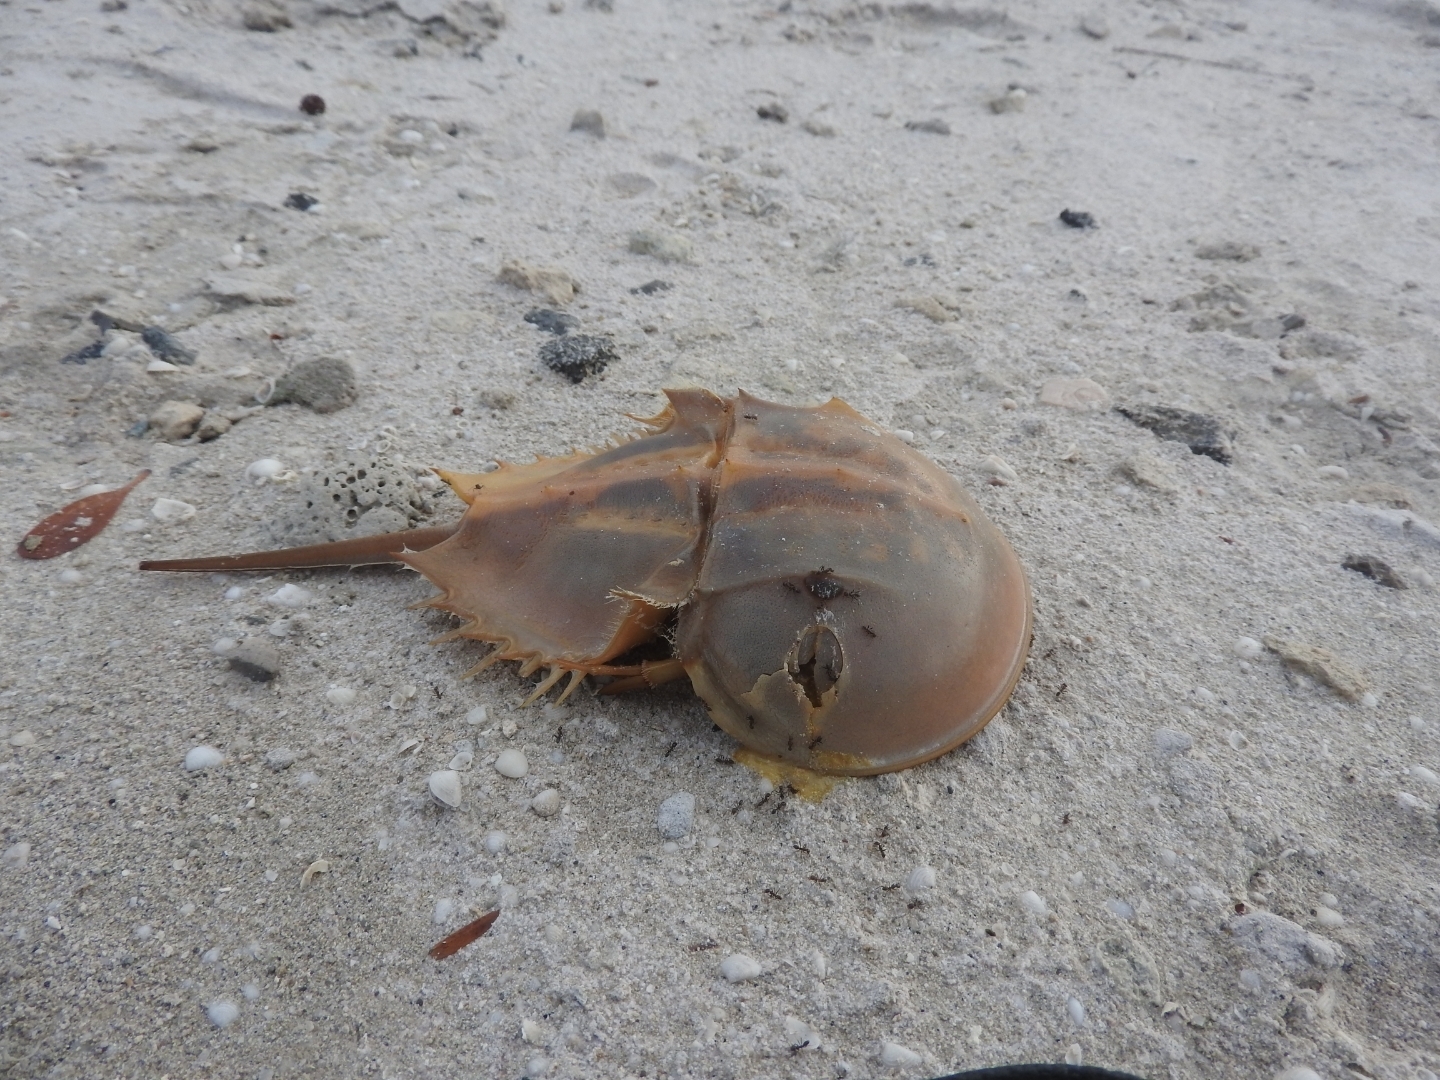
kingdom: Animalia
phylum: Arthropoda
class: Merostomata
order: Xiphosurida
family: Limulidae
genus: Limulus
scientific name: Limulus polyphemus
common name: Horseshoe crab
